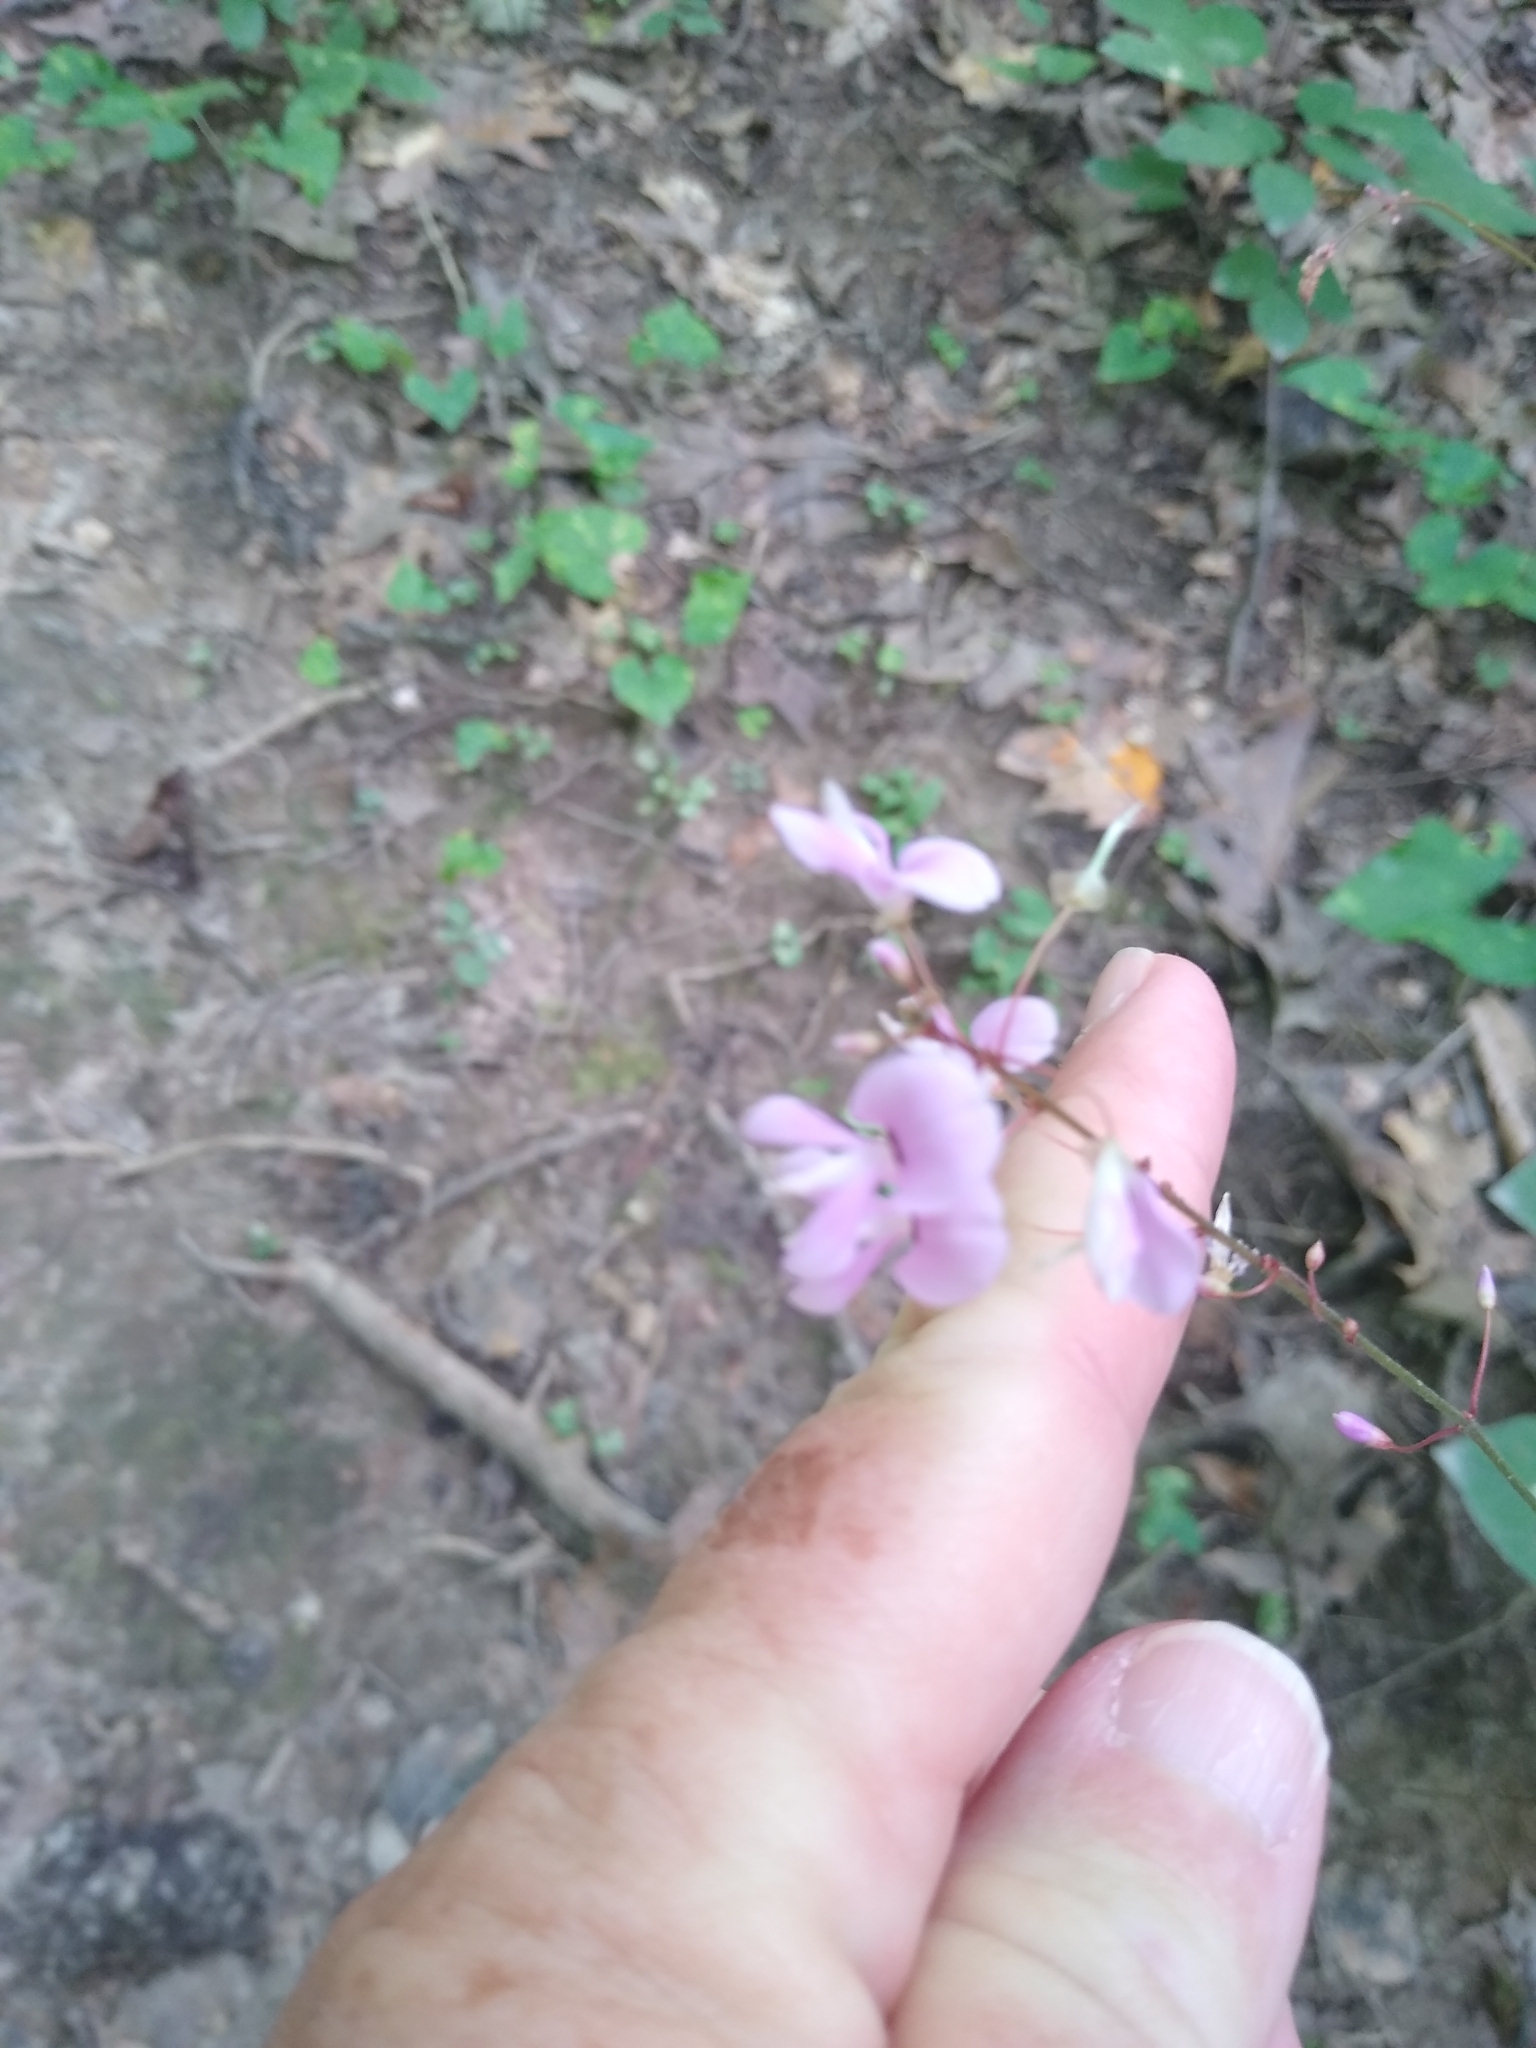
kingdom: Plantae
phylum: Tracheophyta
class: Magnoliopsida
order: Fabales
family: Fabaceae
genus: Hylodesmum
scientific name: Hylodesmum nudiflorum
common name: Bare-stemmed tick-trefoil
